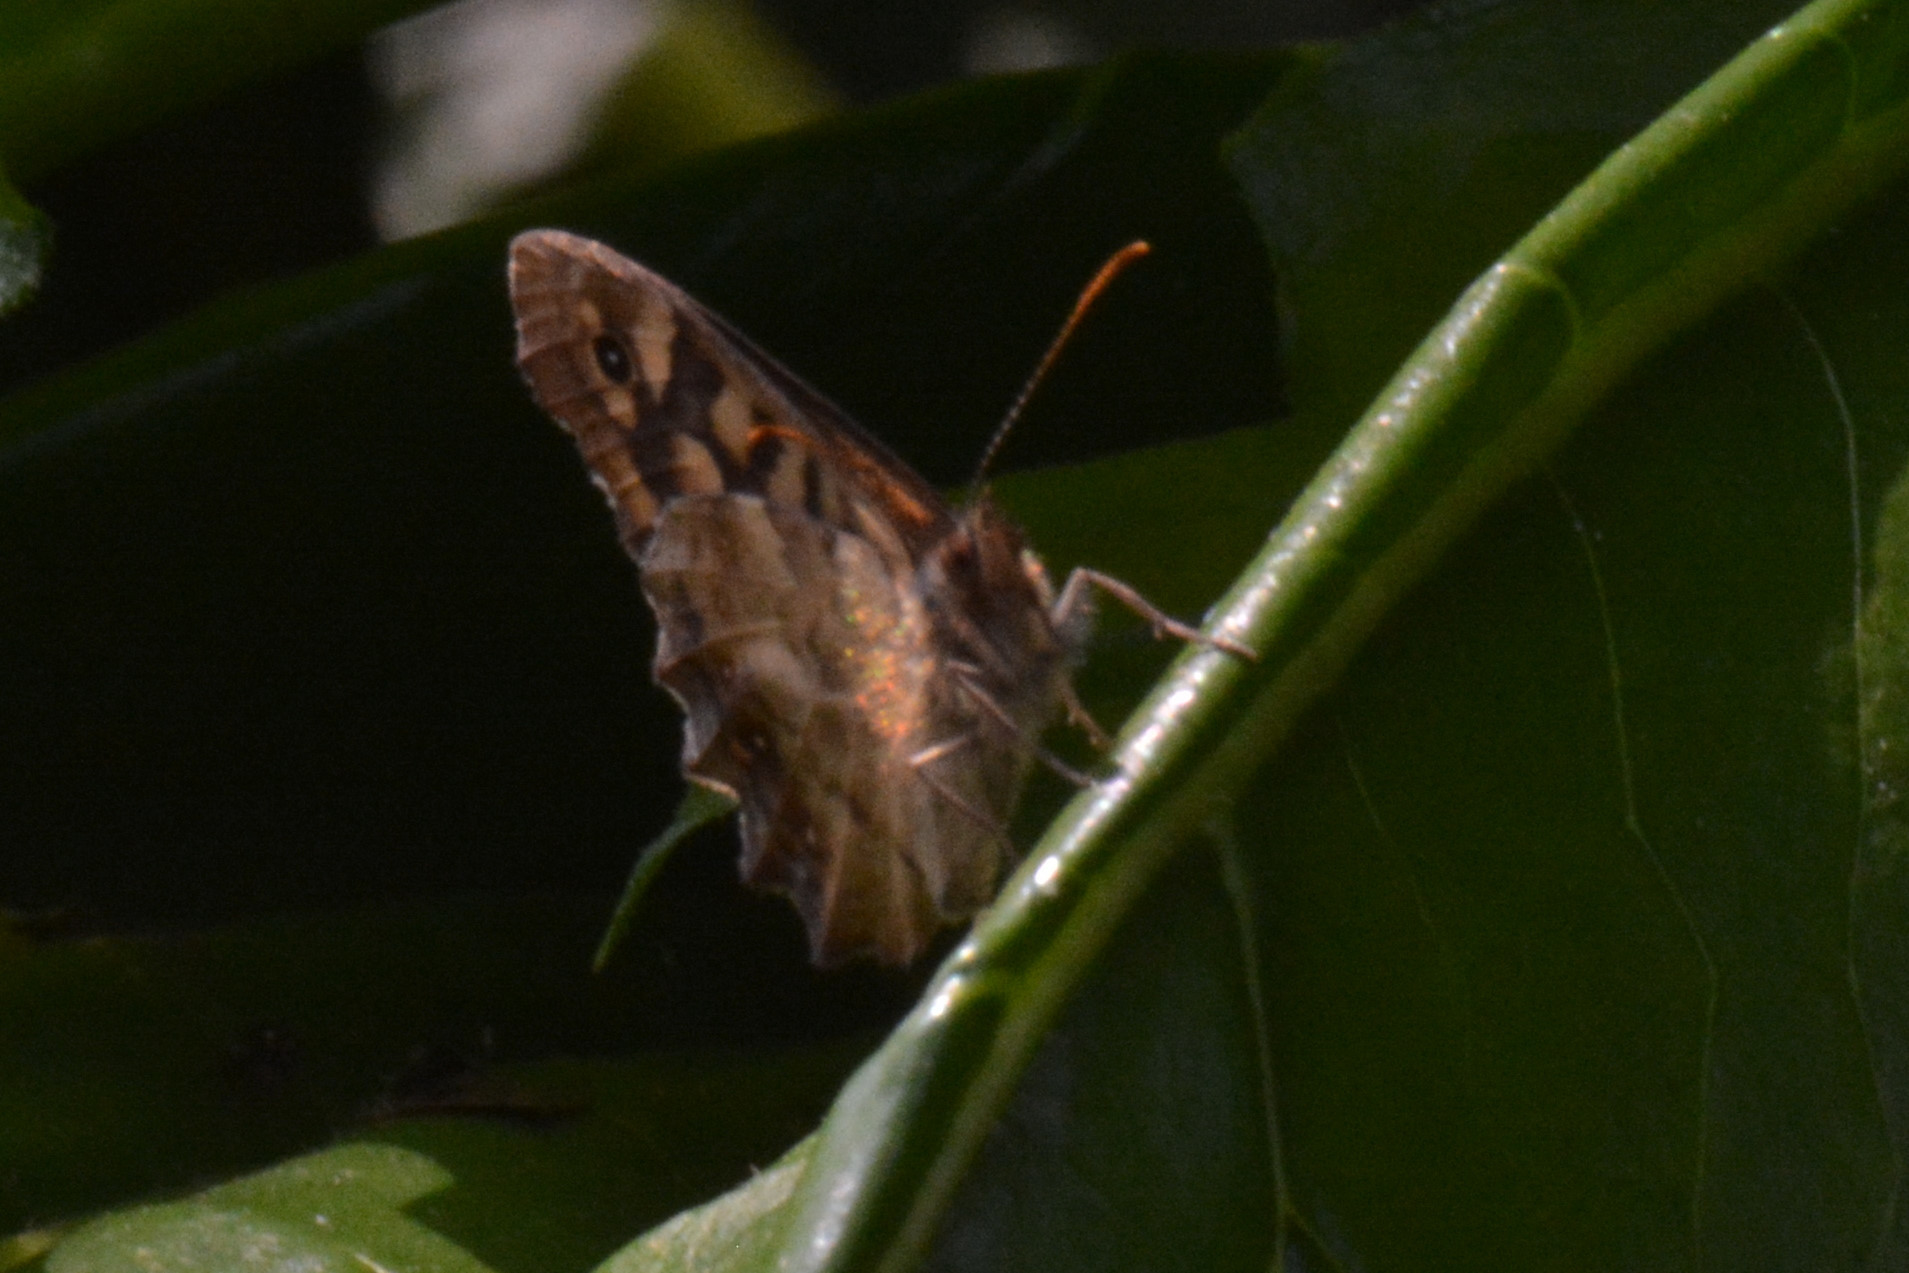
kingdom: Animalia
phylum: Arthropoda
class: Insecta
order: Lepidoptera
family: Nymphalidae
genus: Pararge
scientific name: Pararge aegeria
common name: Speckled wood
